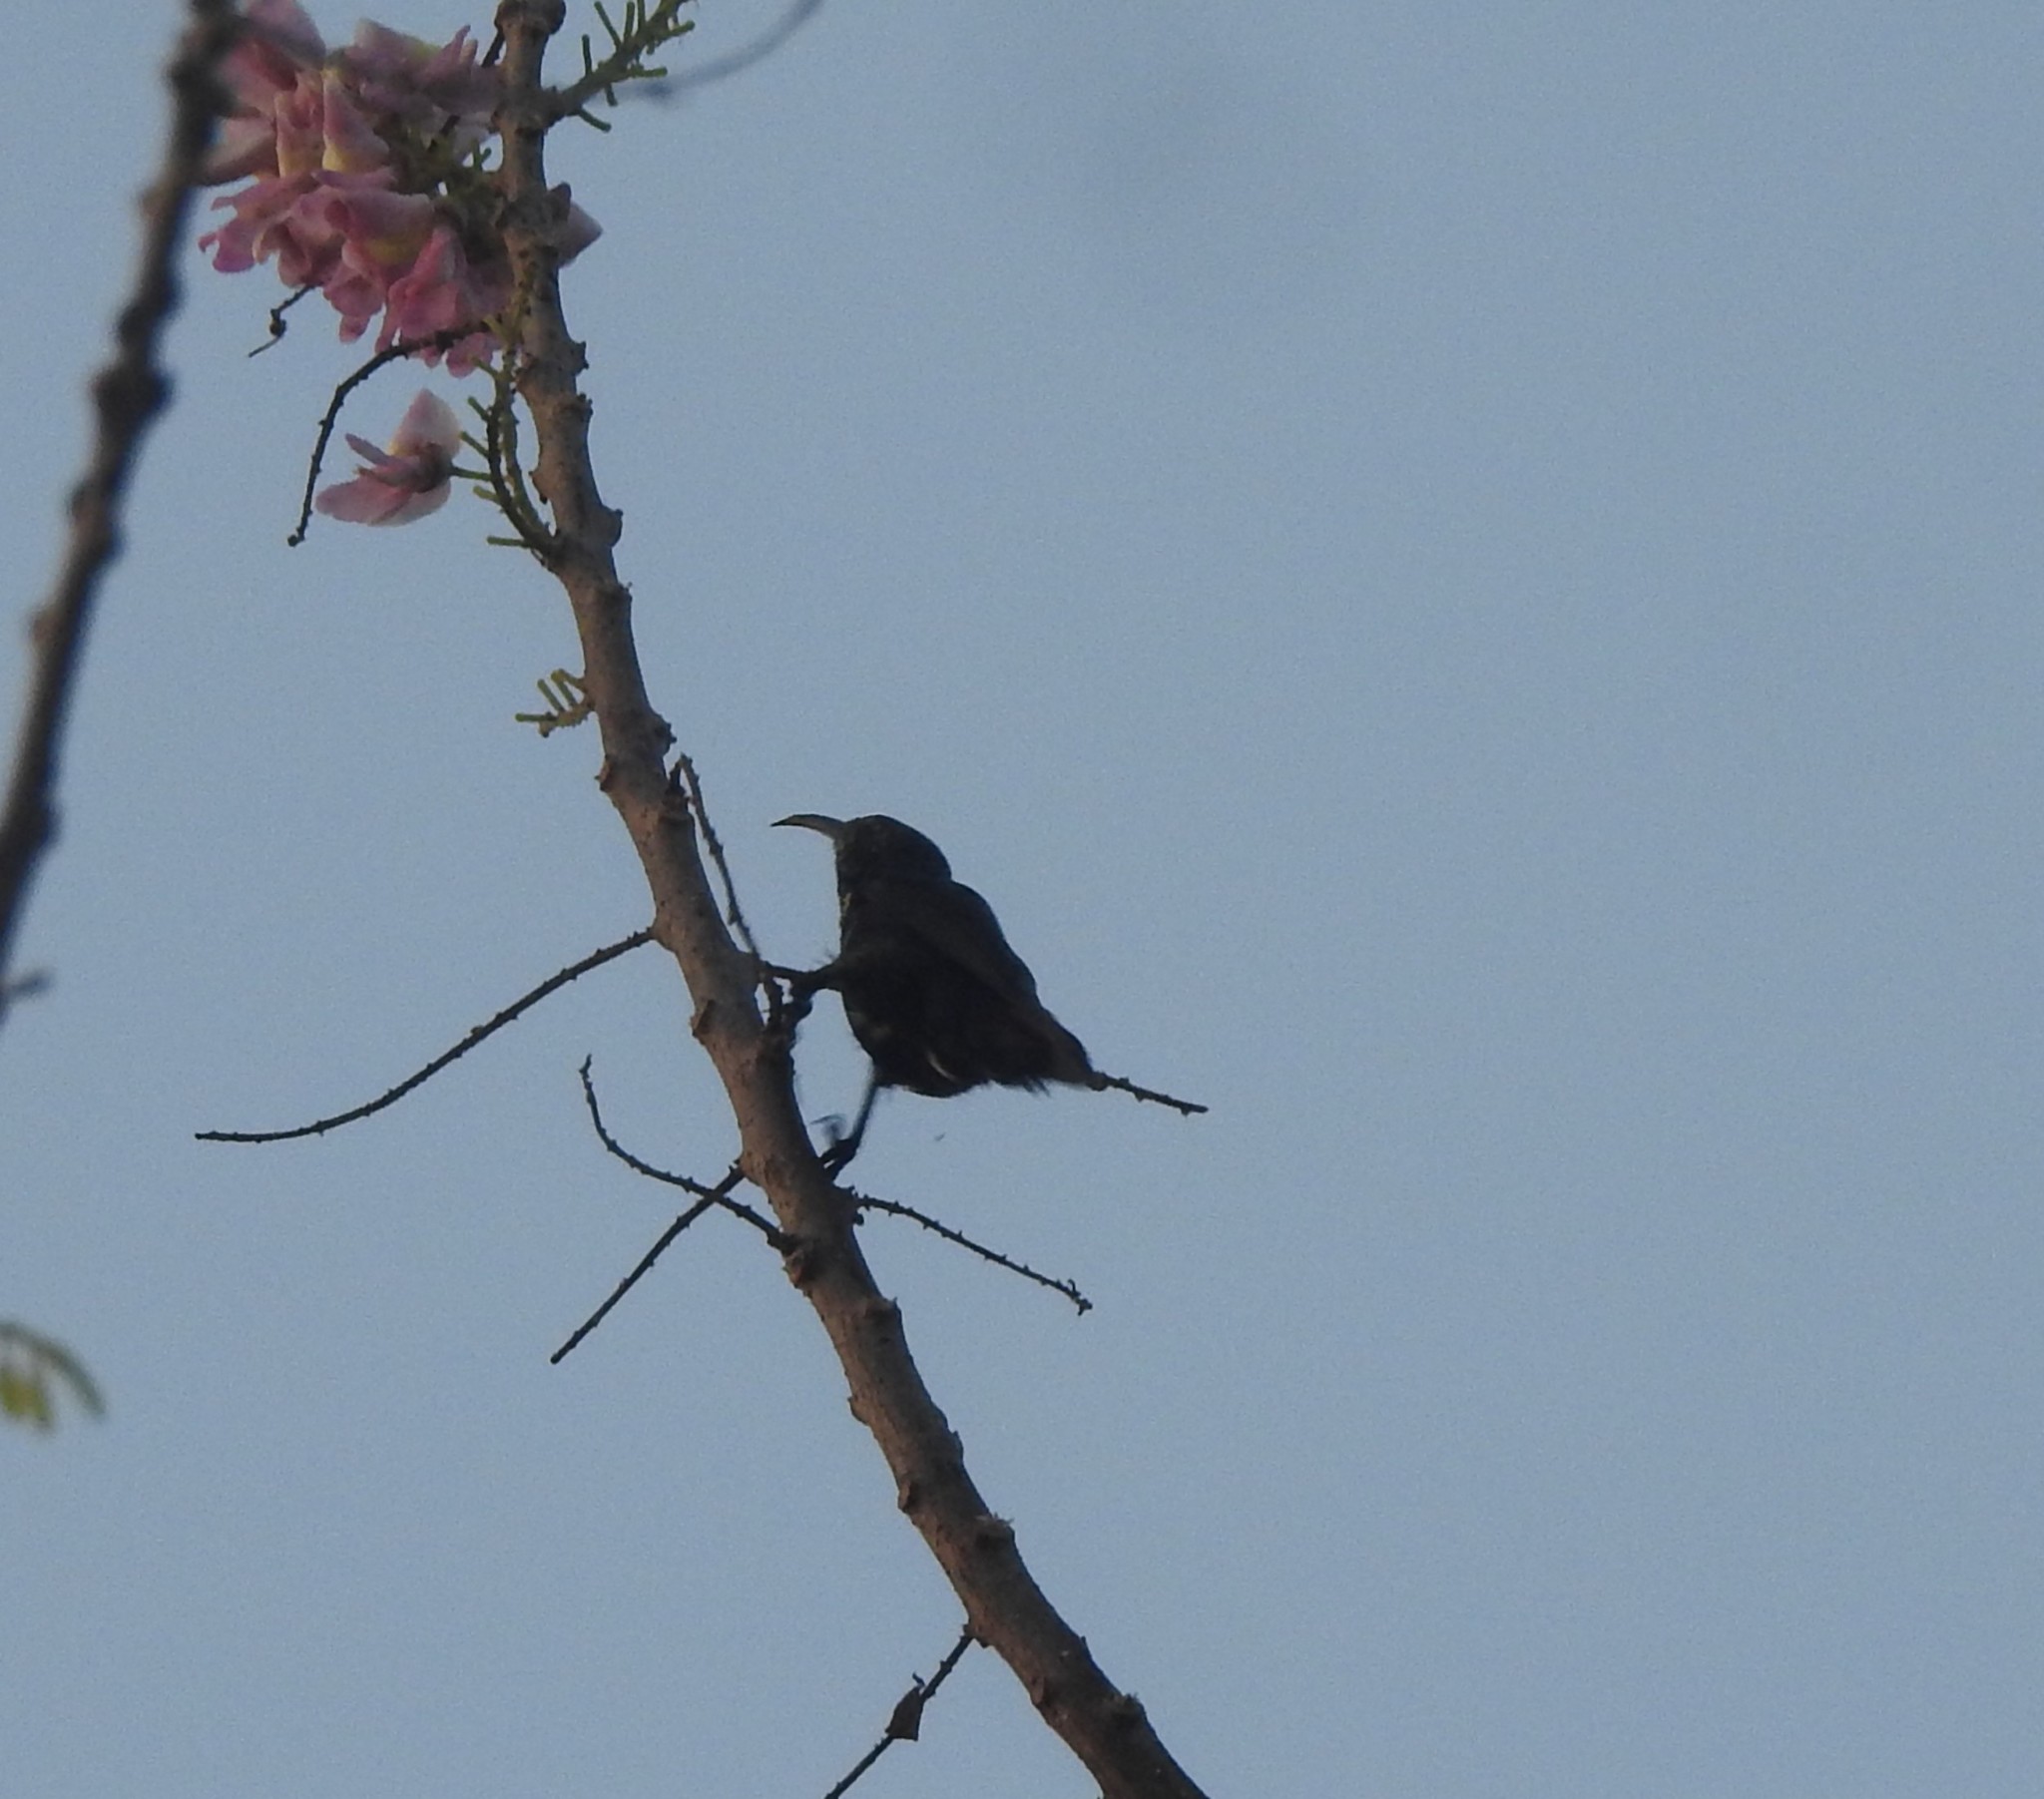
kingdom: Animalia
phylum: Chordata
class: Aves
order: Passeriformes
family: Nectariniidae
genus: Cinnyris
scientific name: Cinnyris asiaticus
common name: Purple sunbird
